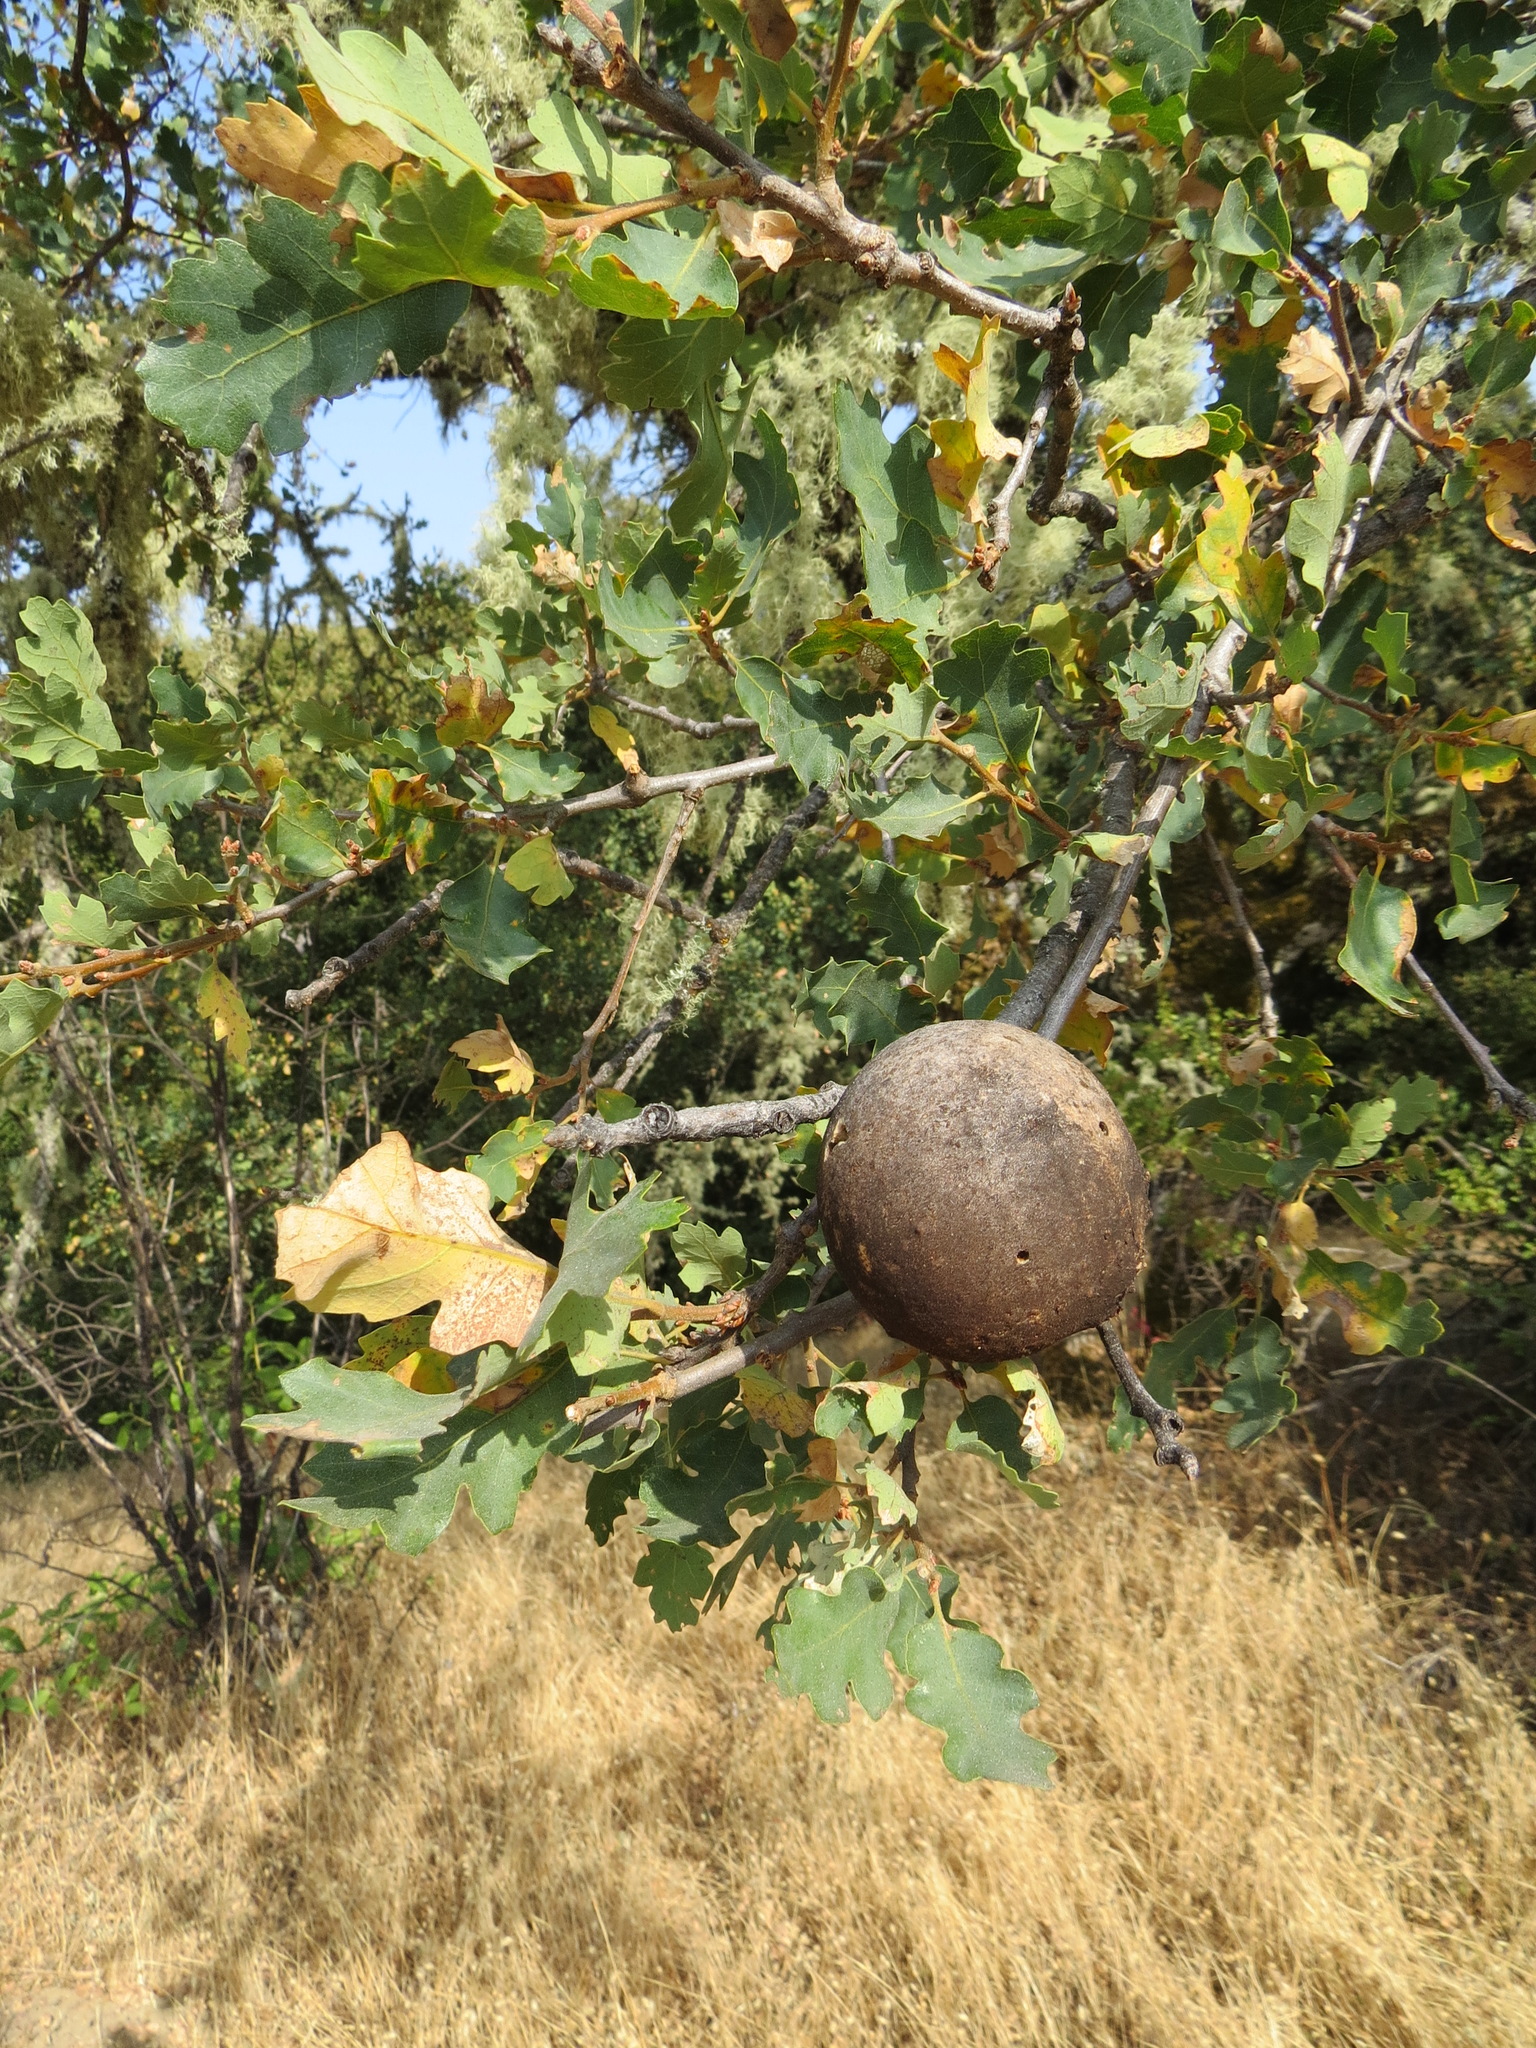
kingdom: Animalia
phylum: Arthropoda
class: Insecta
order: Hymenoptera
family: Cynipidae
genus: Andricus
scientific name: Andricus quercuscalifornicus
